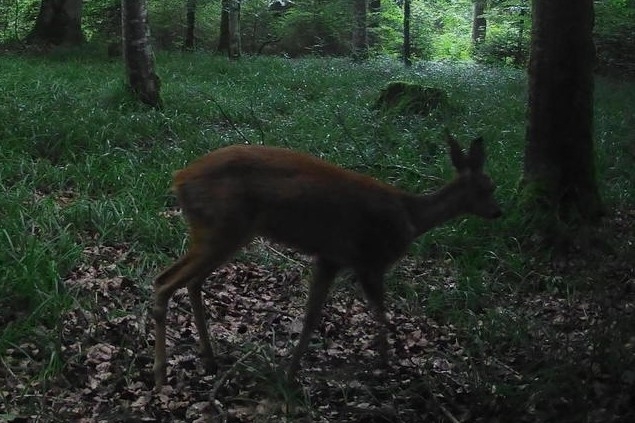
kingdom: Animalia
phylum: Chordata
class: Mammalia
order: Artiodactyla
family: Cervidae
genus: Capreolus
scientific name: Capreolus capreolus
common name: Western roe deer
